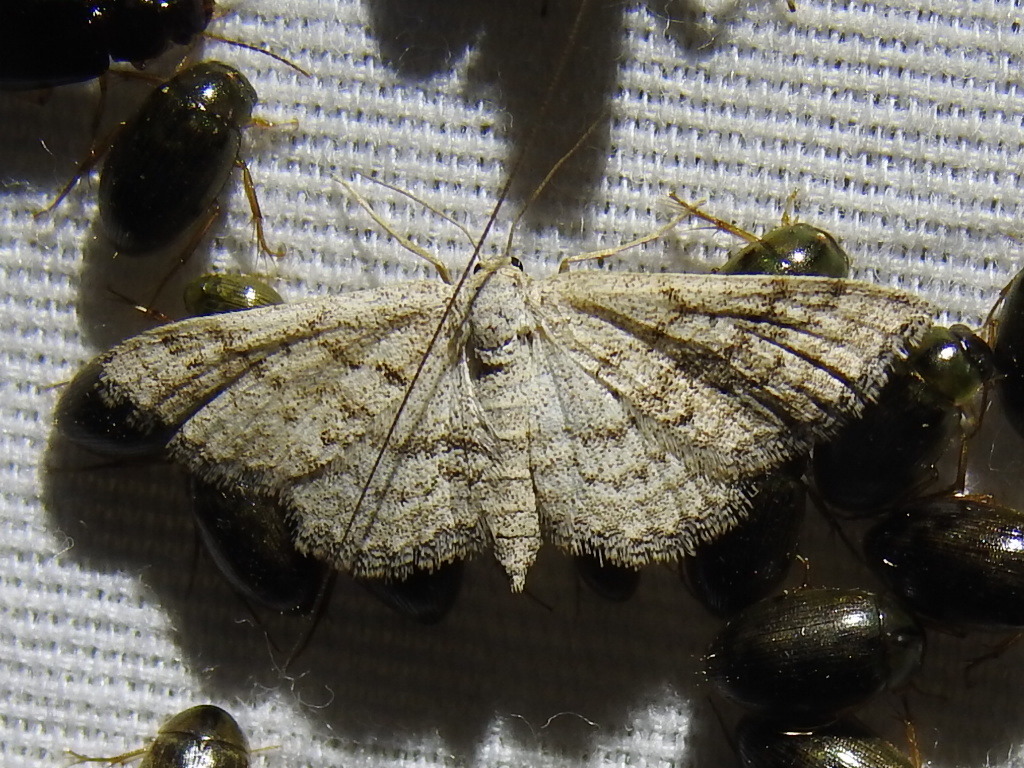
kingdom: Animalia
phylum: Arthropoda
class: Insecta
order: Lepidoptera
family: Geometridae
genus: Lobocleta
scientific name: Lobocleta ossularia
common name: Drab brown wave
